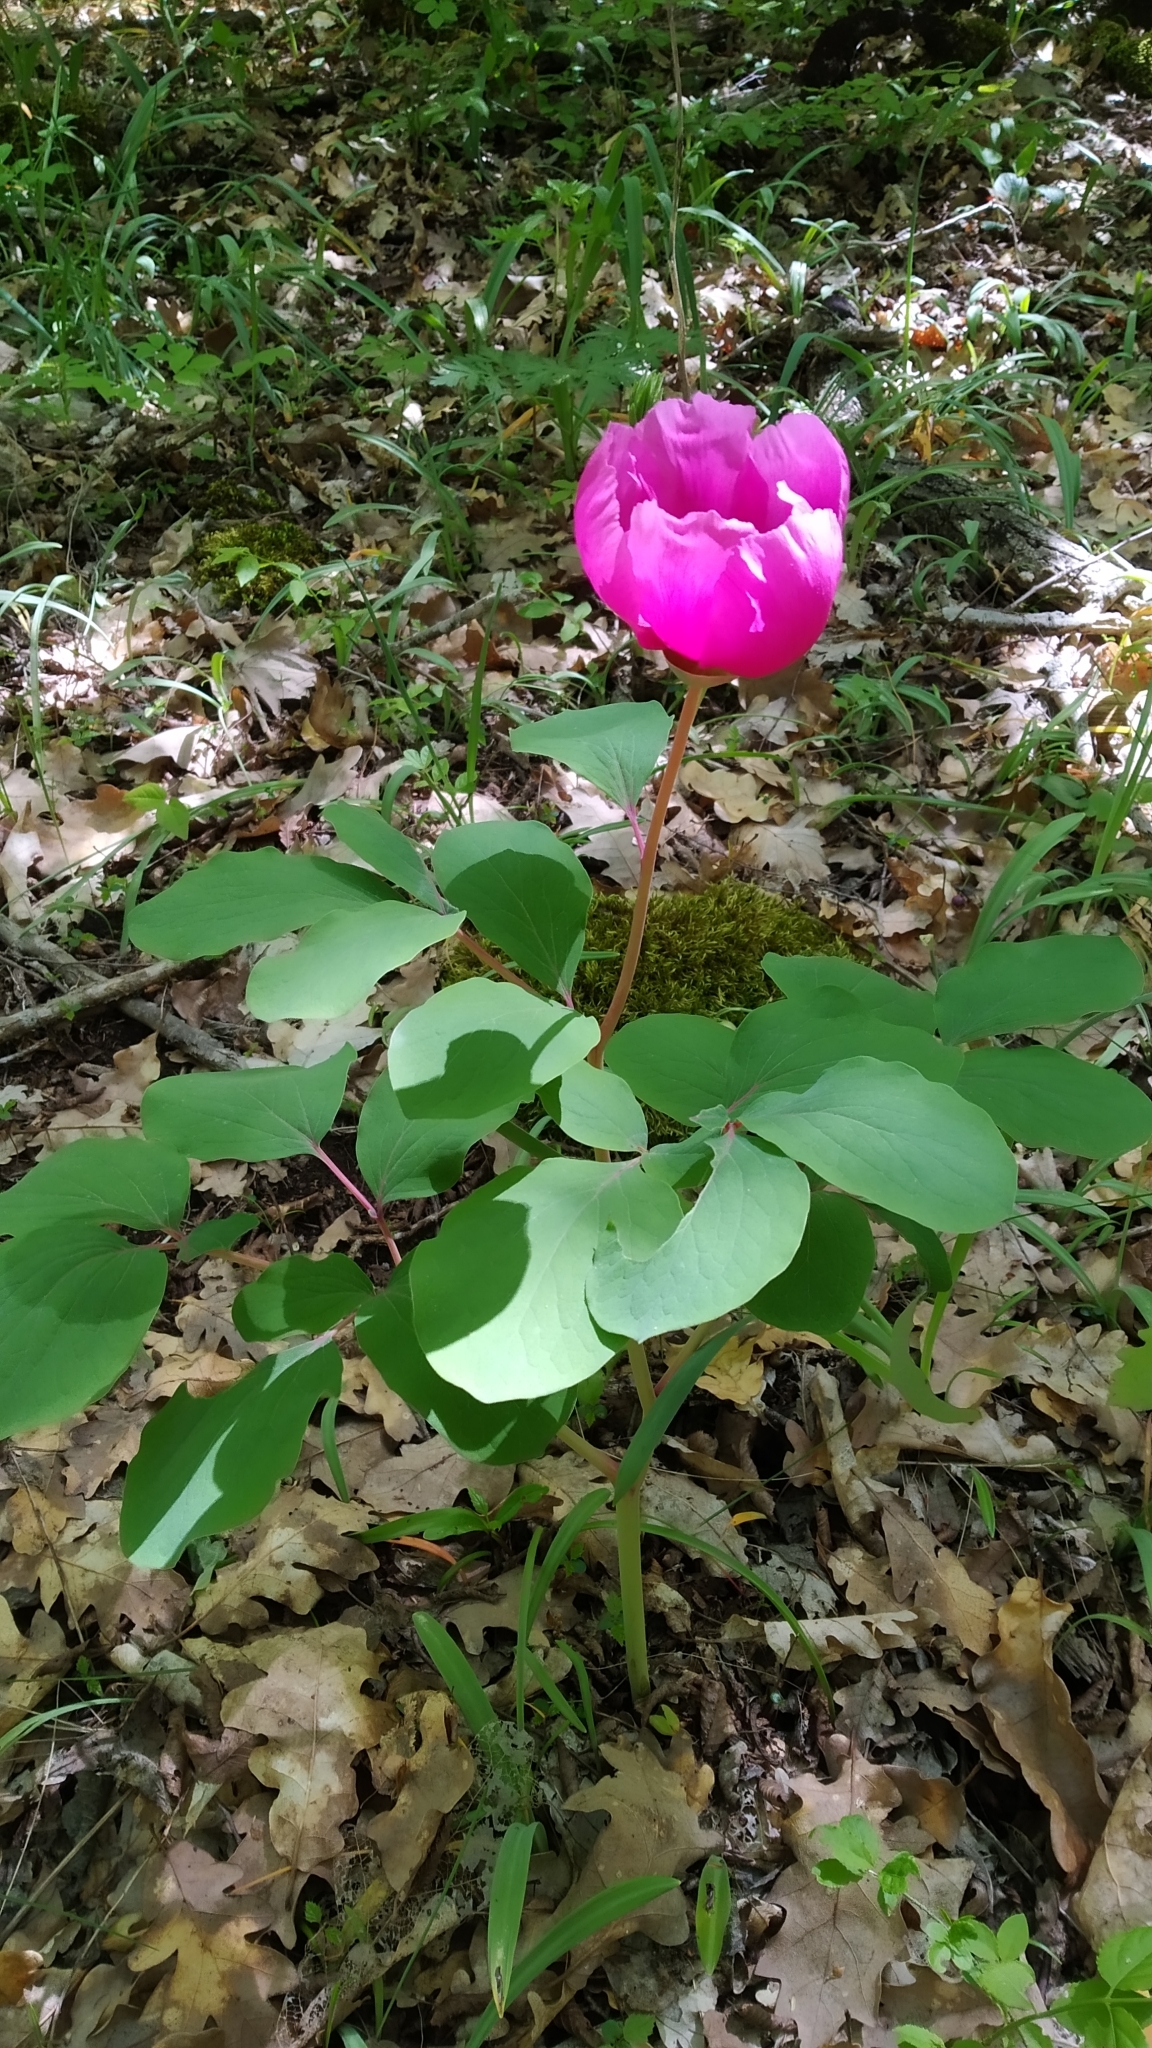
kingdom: Plantae
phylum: Tracheophyta
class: Magnoliopsida
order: Saxifragales
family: Paeoniaceae
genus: Paeonia
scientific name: Paeonia daurica
